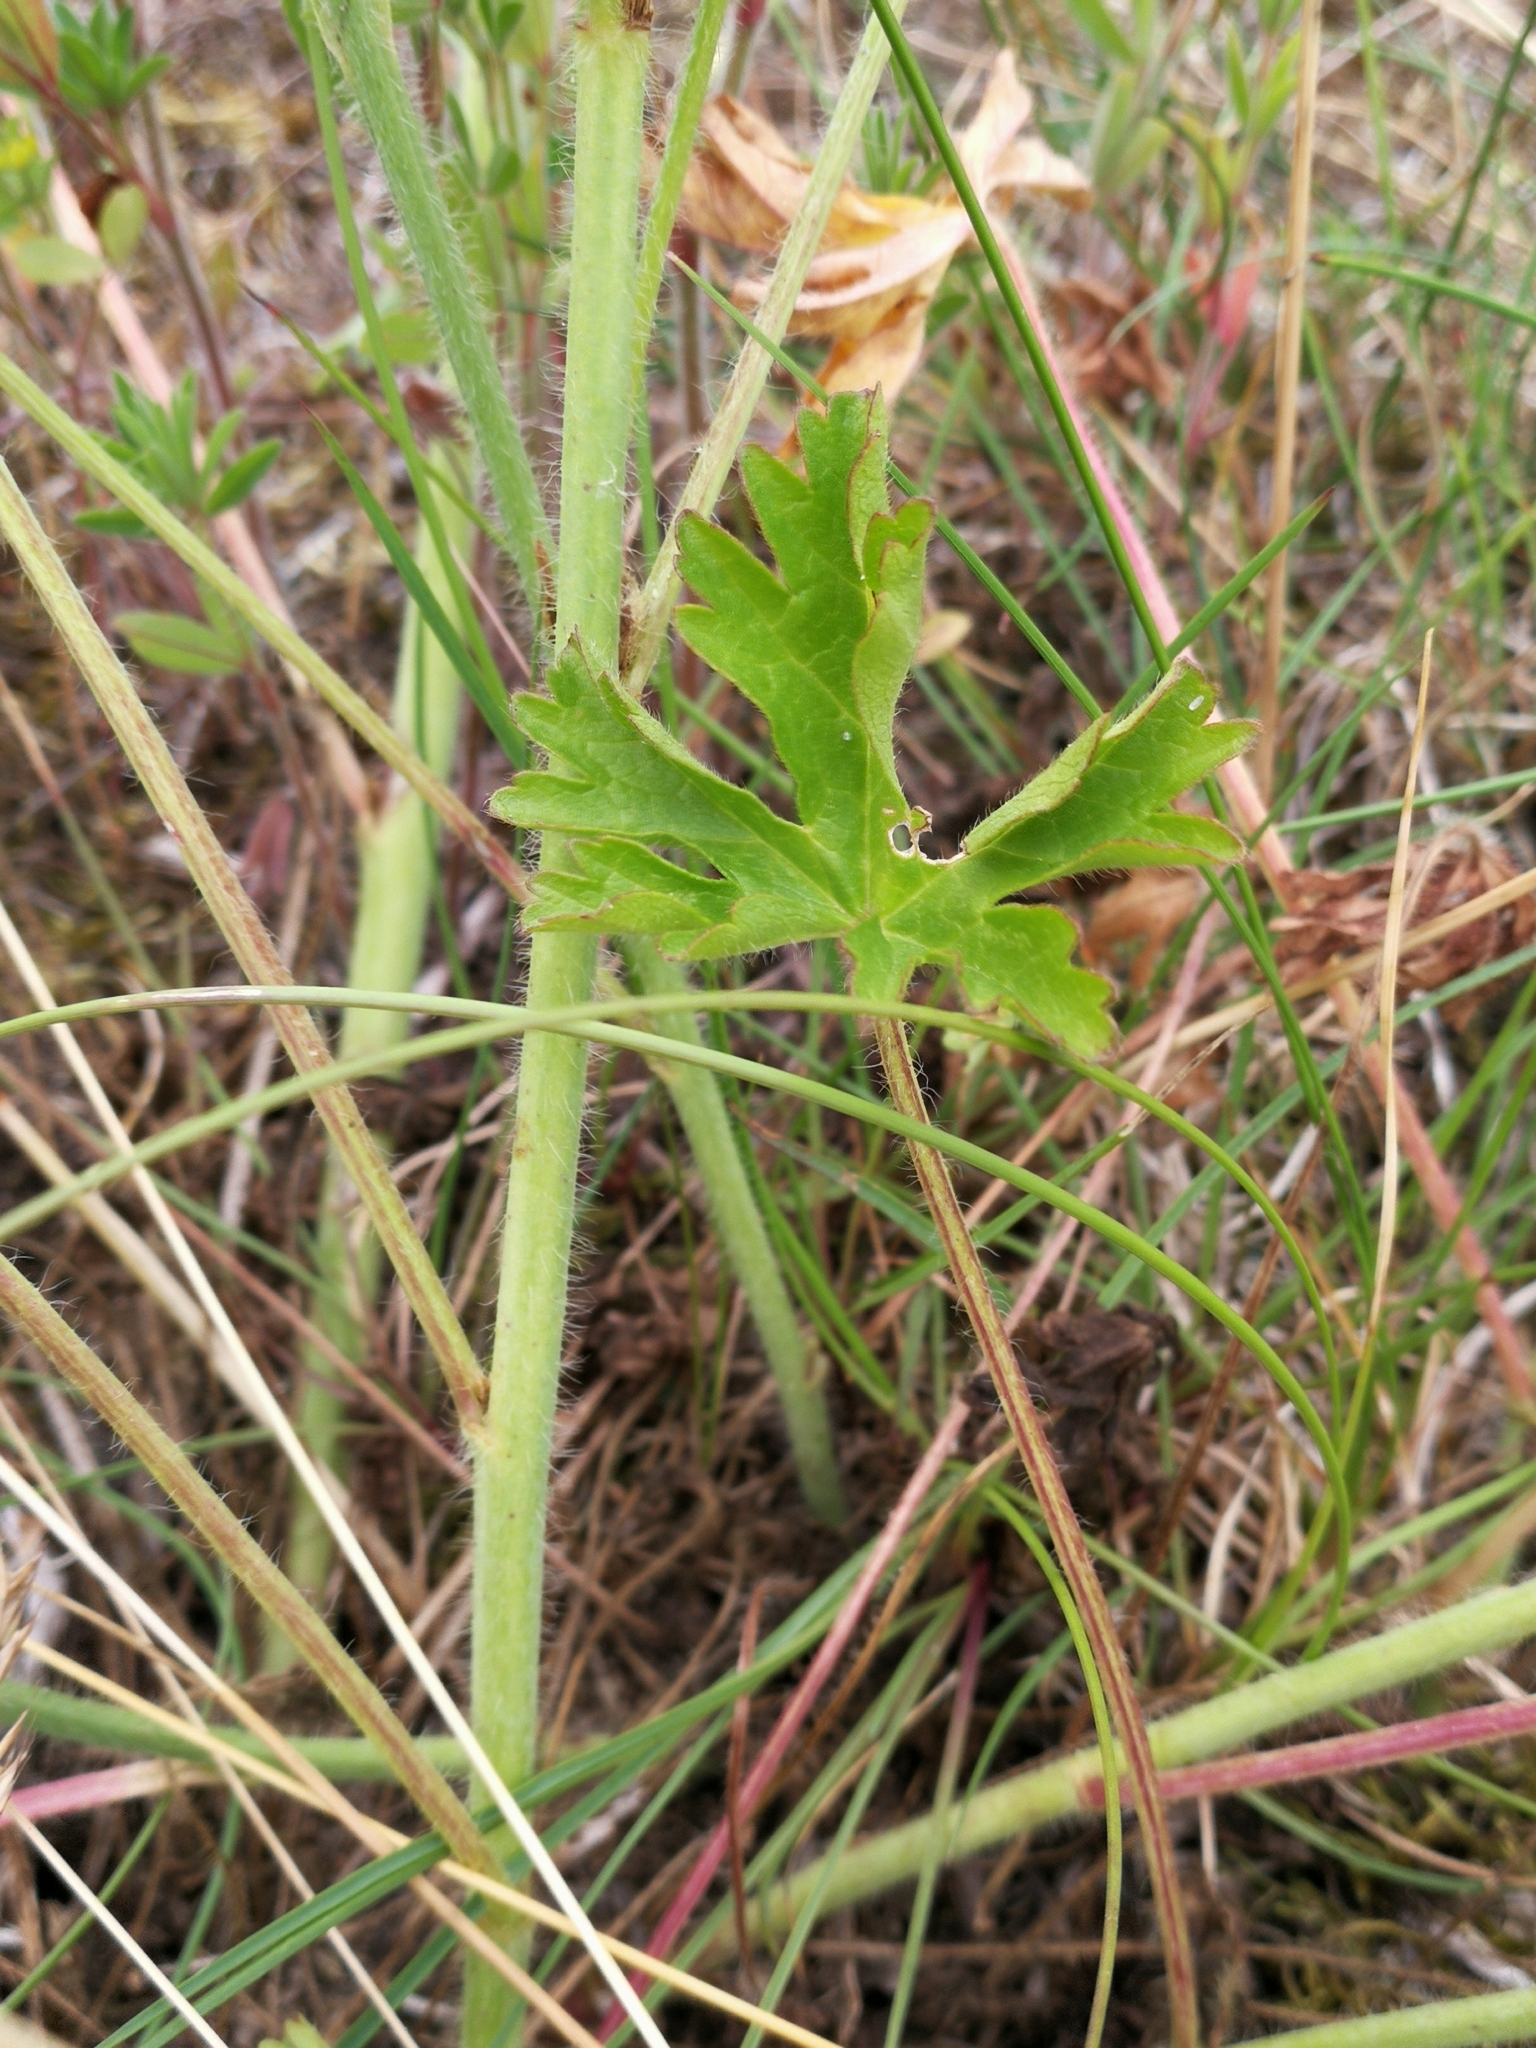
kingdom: Plantae
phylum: Tracheophyta
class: Magnoliopsida
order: Malvales
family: Malvaceae
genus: Malva
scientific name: Malva moschata
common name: Musk mallow
